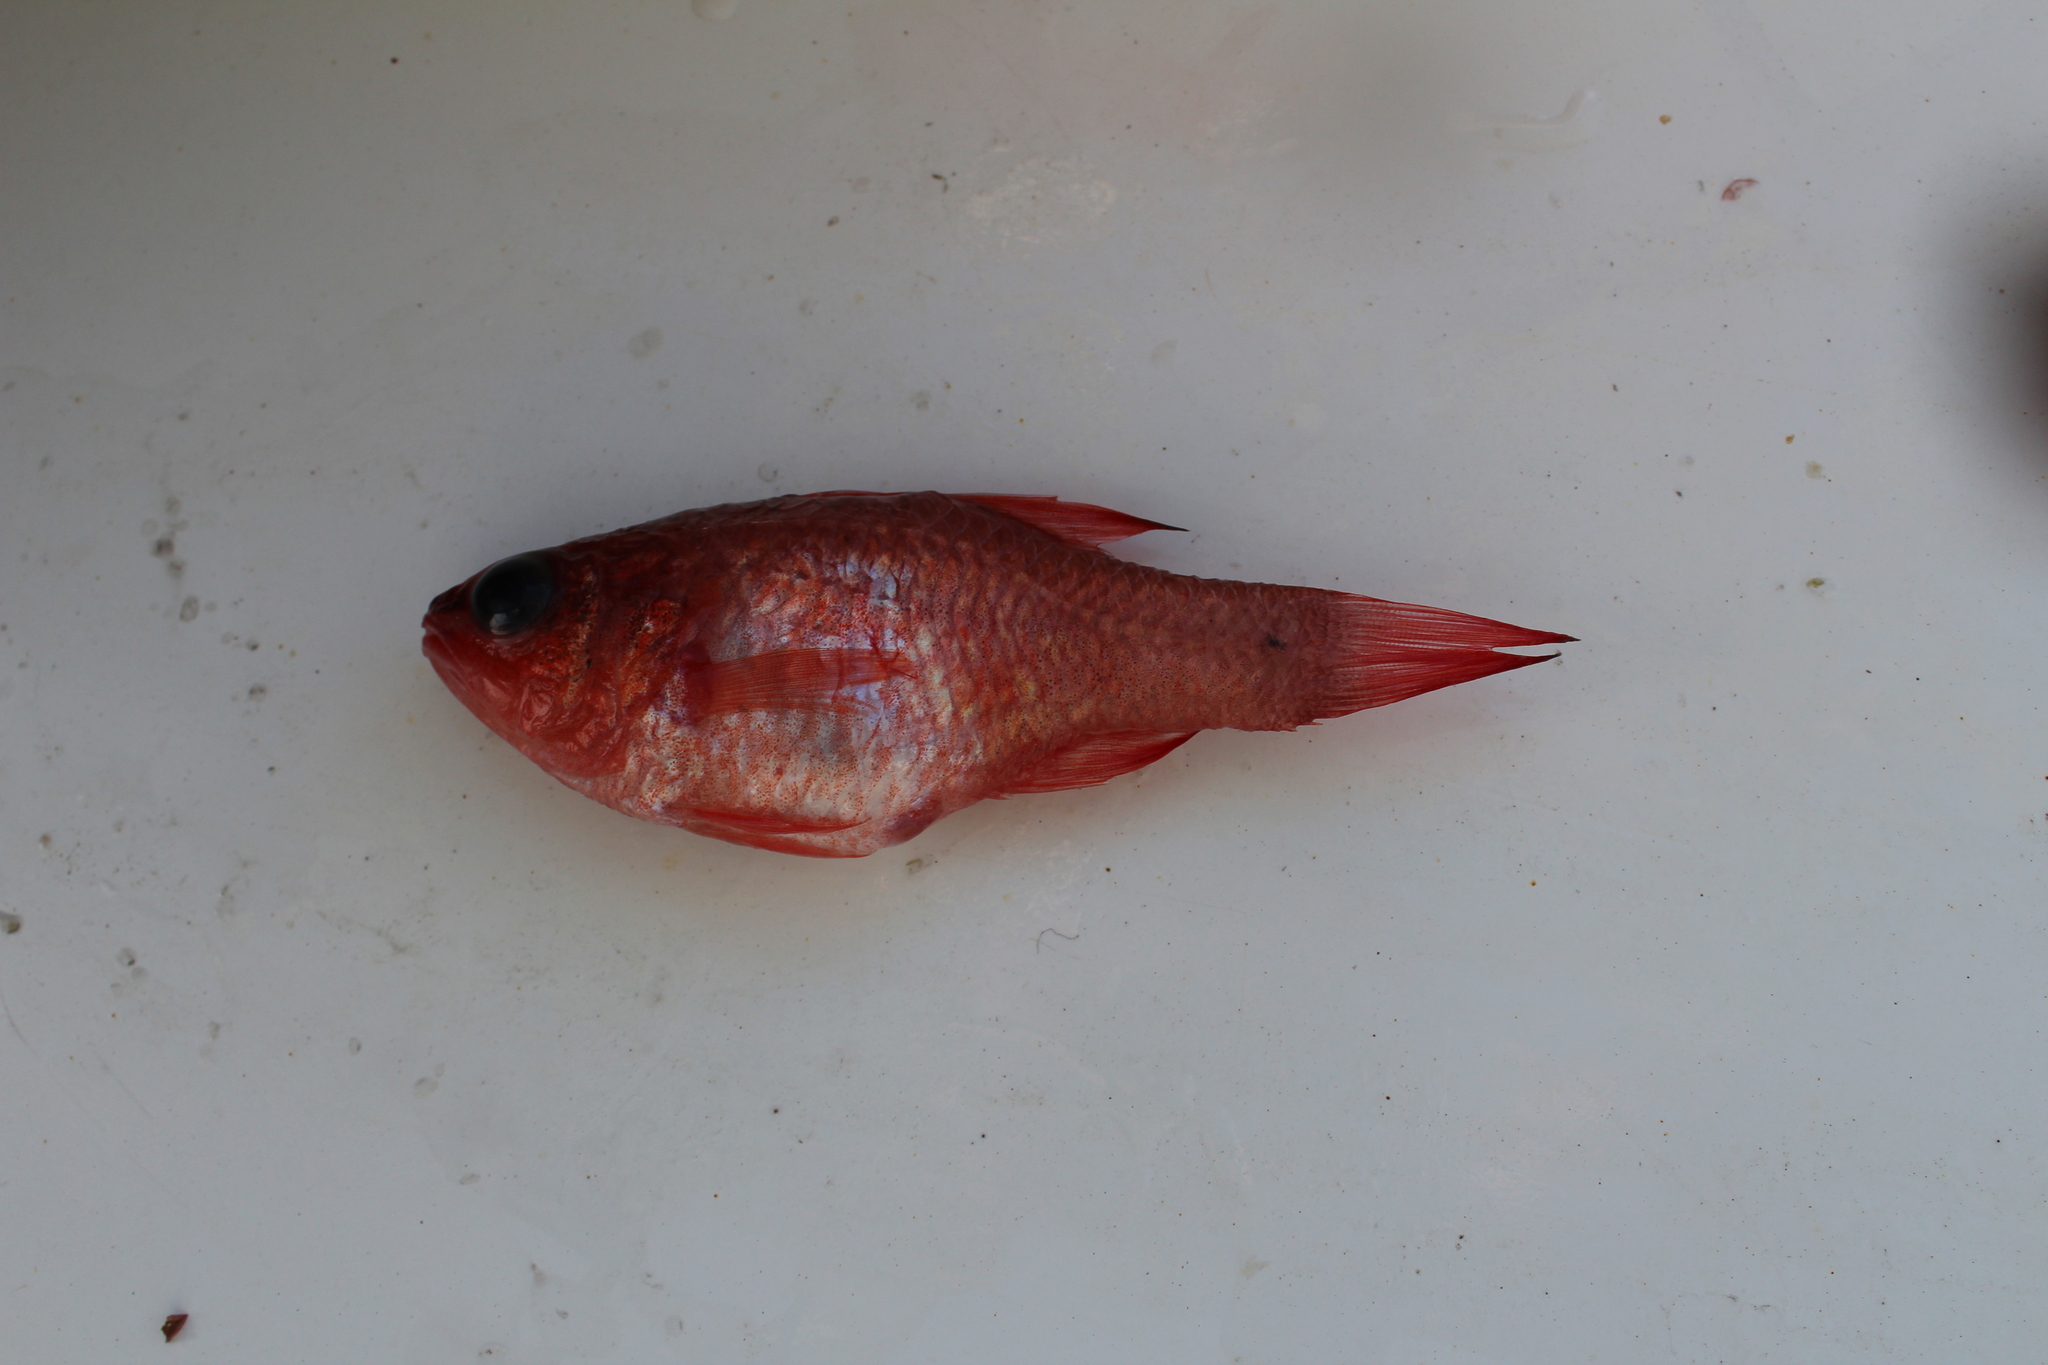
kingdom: Animalia
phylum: Chordata
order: Perciformes
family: Apogonidae
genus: Apogon
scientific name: Apogon imberbis
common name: Cardinal fish
